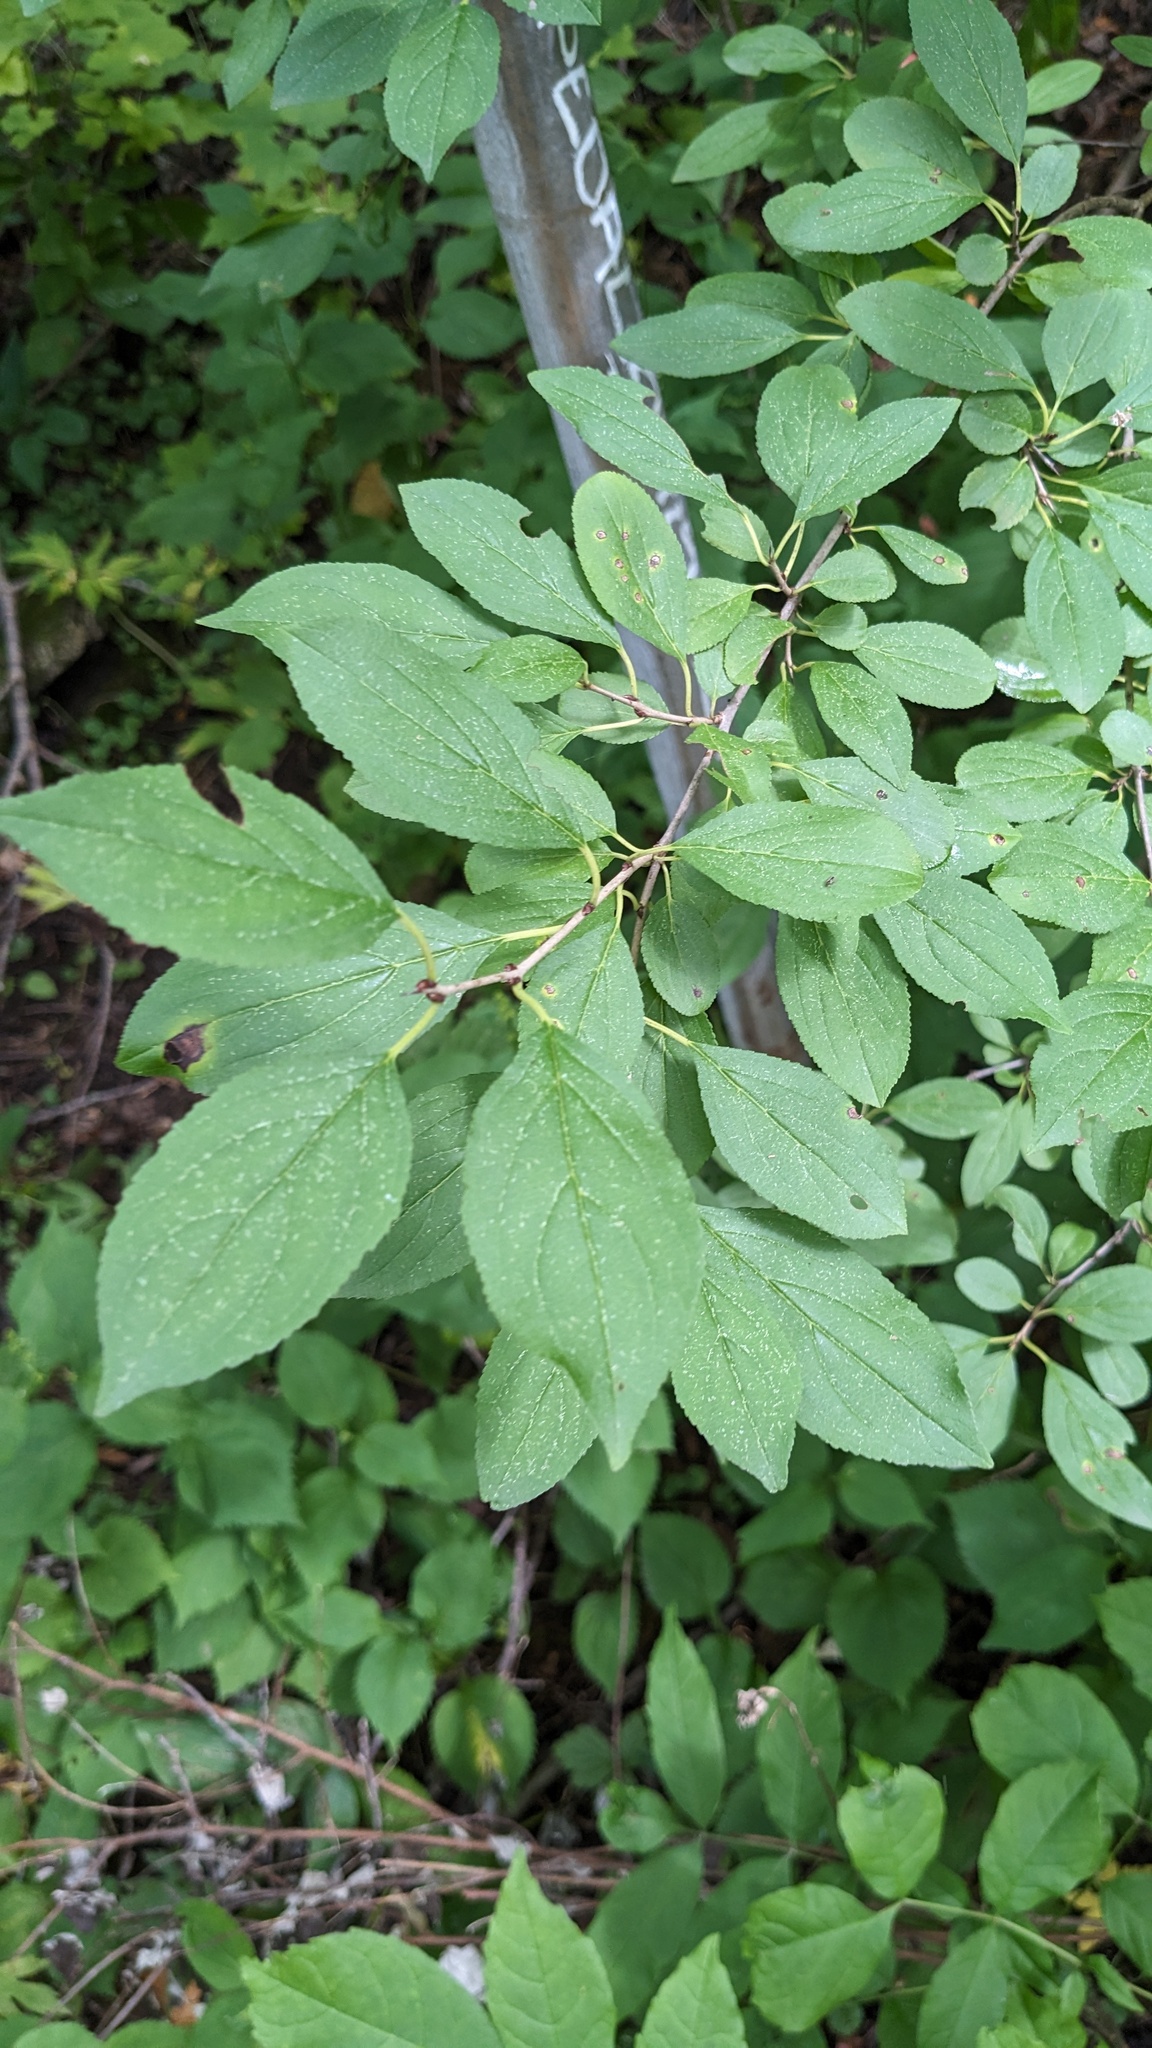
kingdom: Plantae
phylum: Tracheophyta
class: Magnoliopsida
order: Rosales
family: Rhamnaceae
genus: Rhamnus
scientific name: Rhamnus cathartica
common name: Common buckthorn
